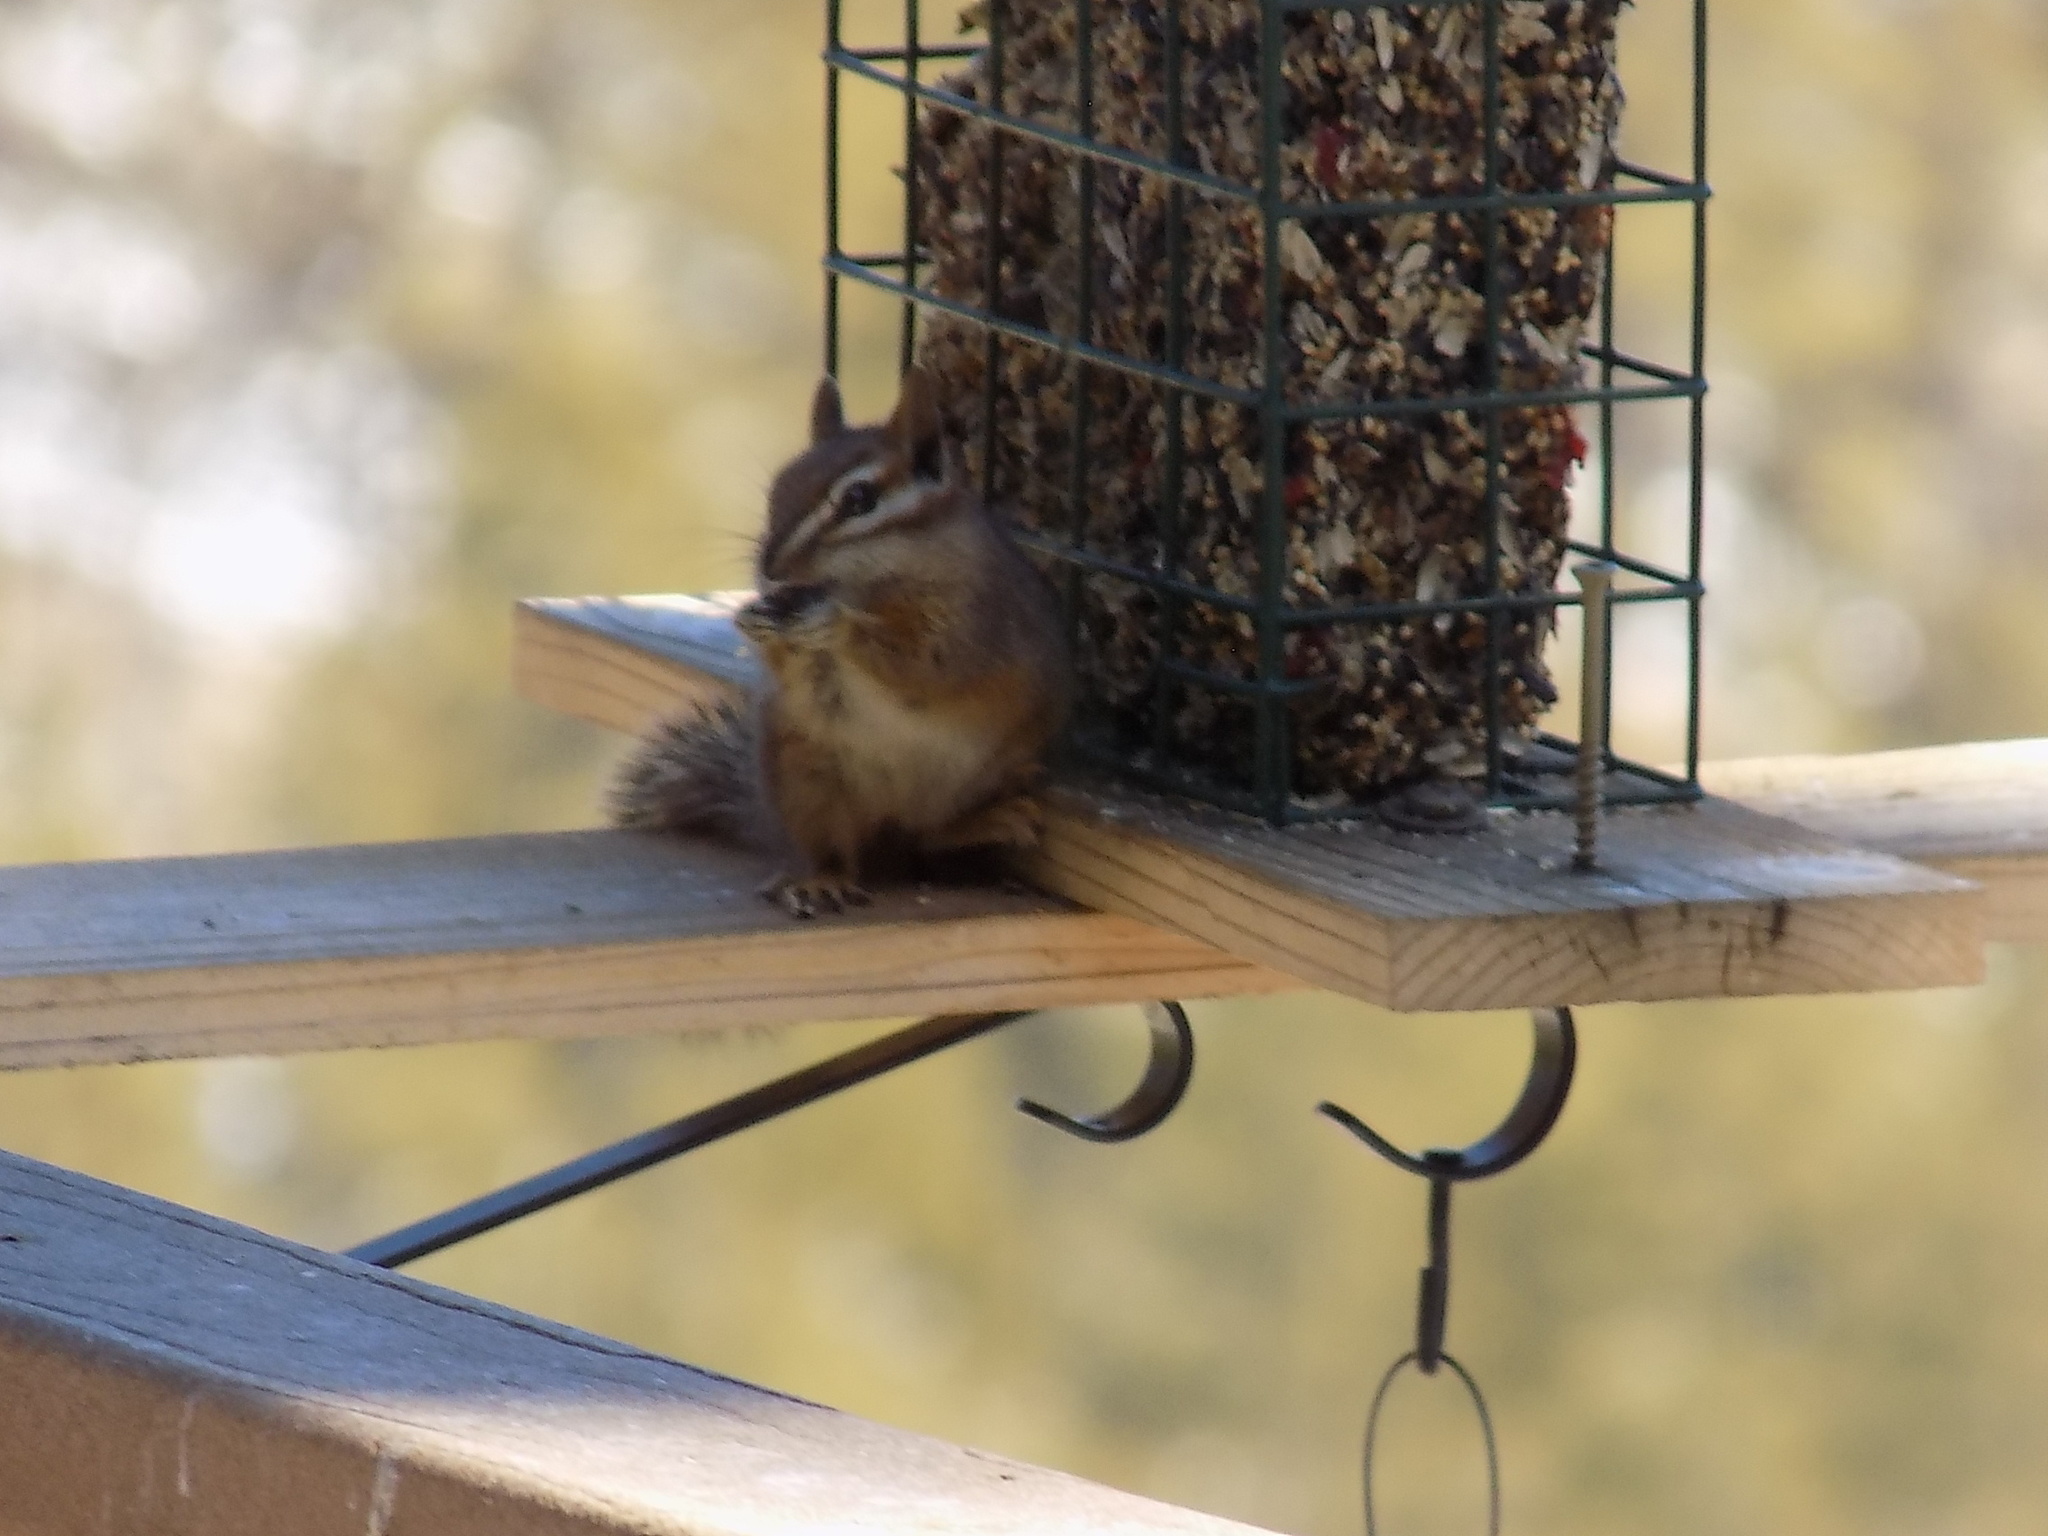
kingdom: Animalia
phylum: Chordata
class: Mammalia
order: Rodentia
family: Sciuridae
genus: Tamias
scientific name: Tamias dorsalis
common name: Cliff chipmunk
